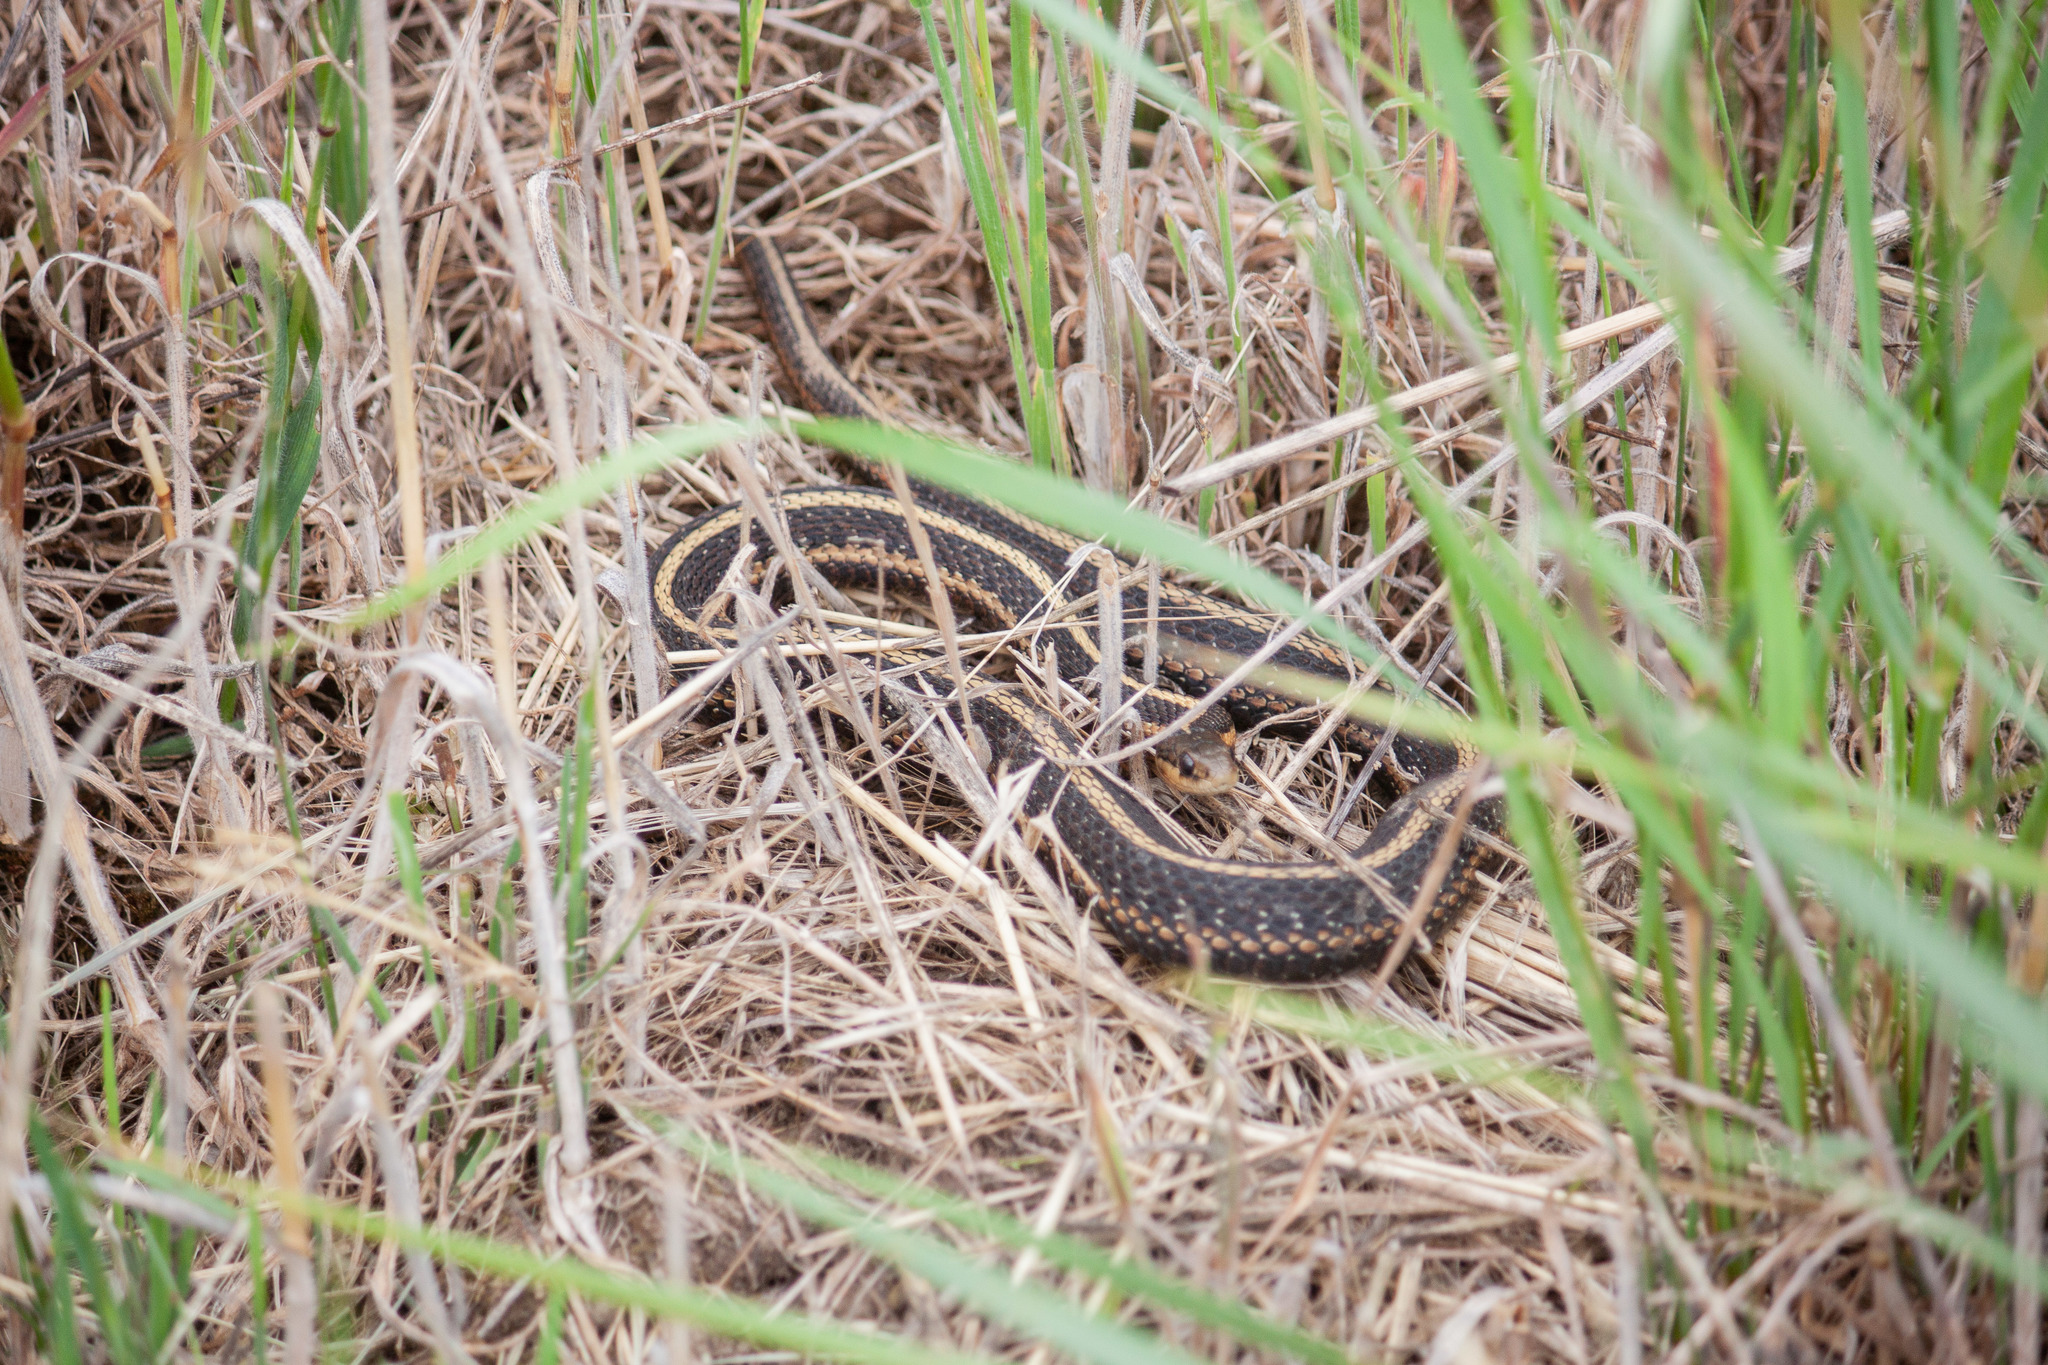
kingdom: Animalia
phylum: Chordata
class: Squamata
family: Colubridae
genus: Thamnophis
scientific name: Thamnophis ordinoides
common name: Northwestern garter snake
